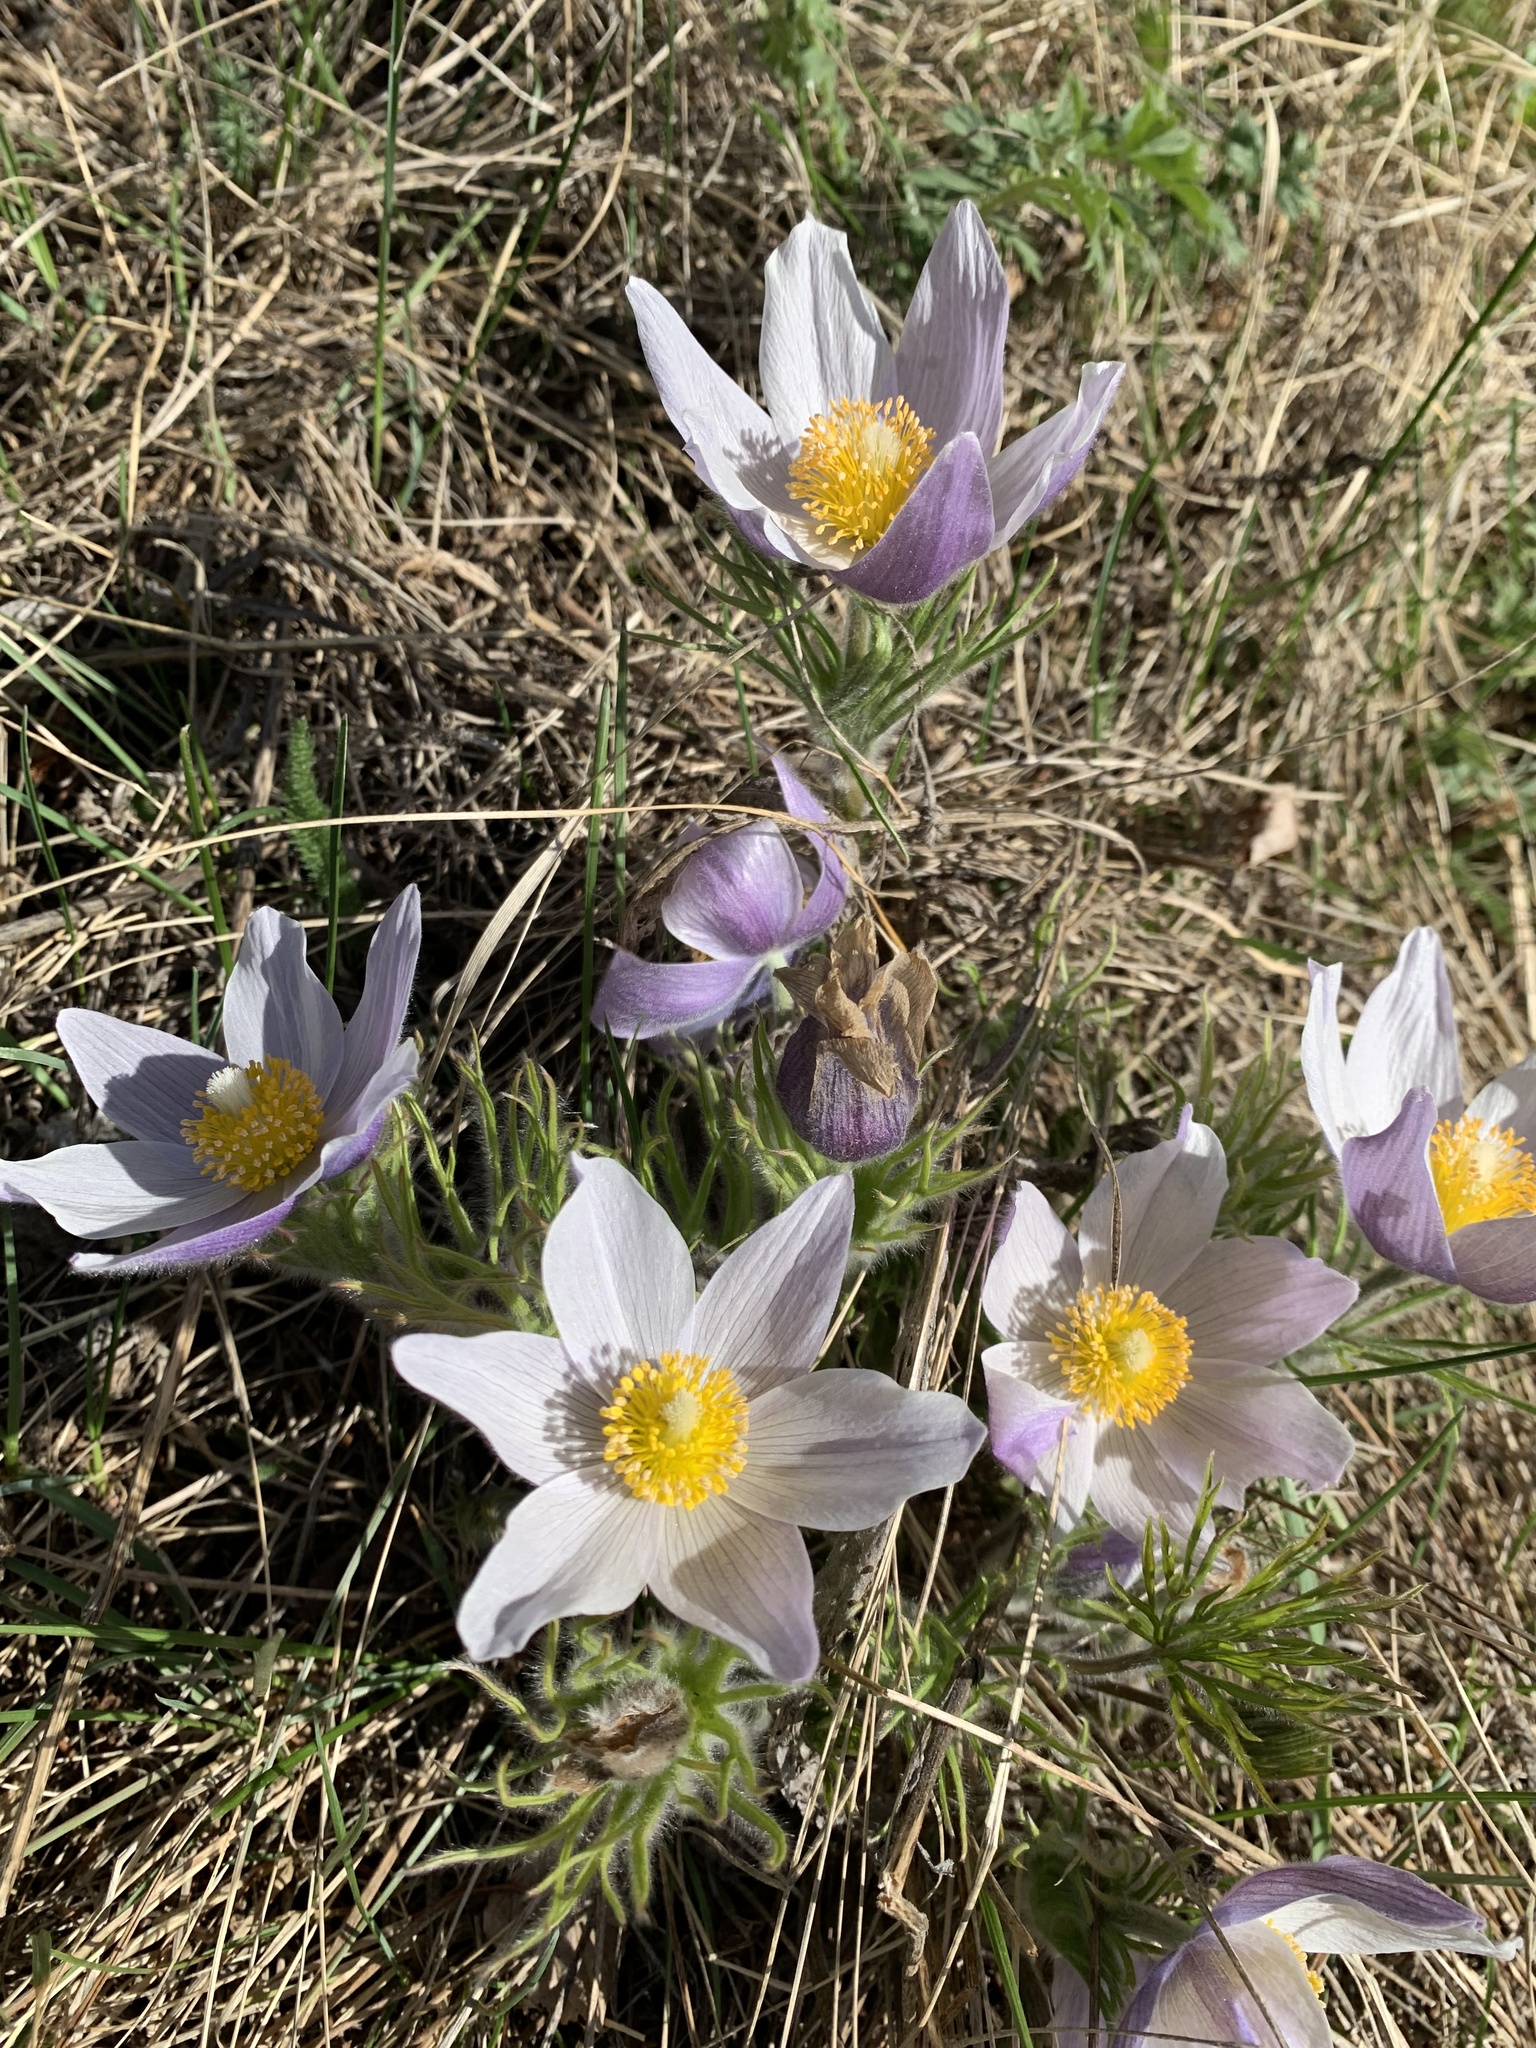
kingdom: Plantae
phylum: Tracheophyta
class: Magnoliopsida
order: Ranunculales
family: Ranunculaceae
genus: Pulsatilla
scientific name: Pulsatilla nuttalliana
